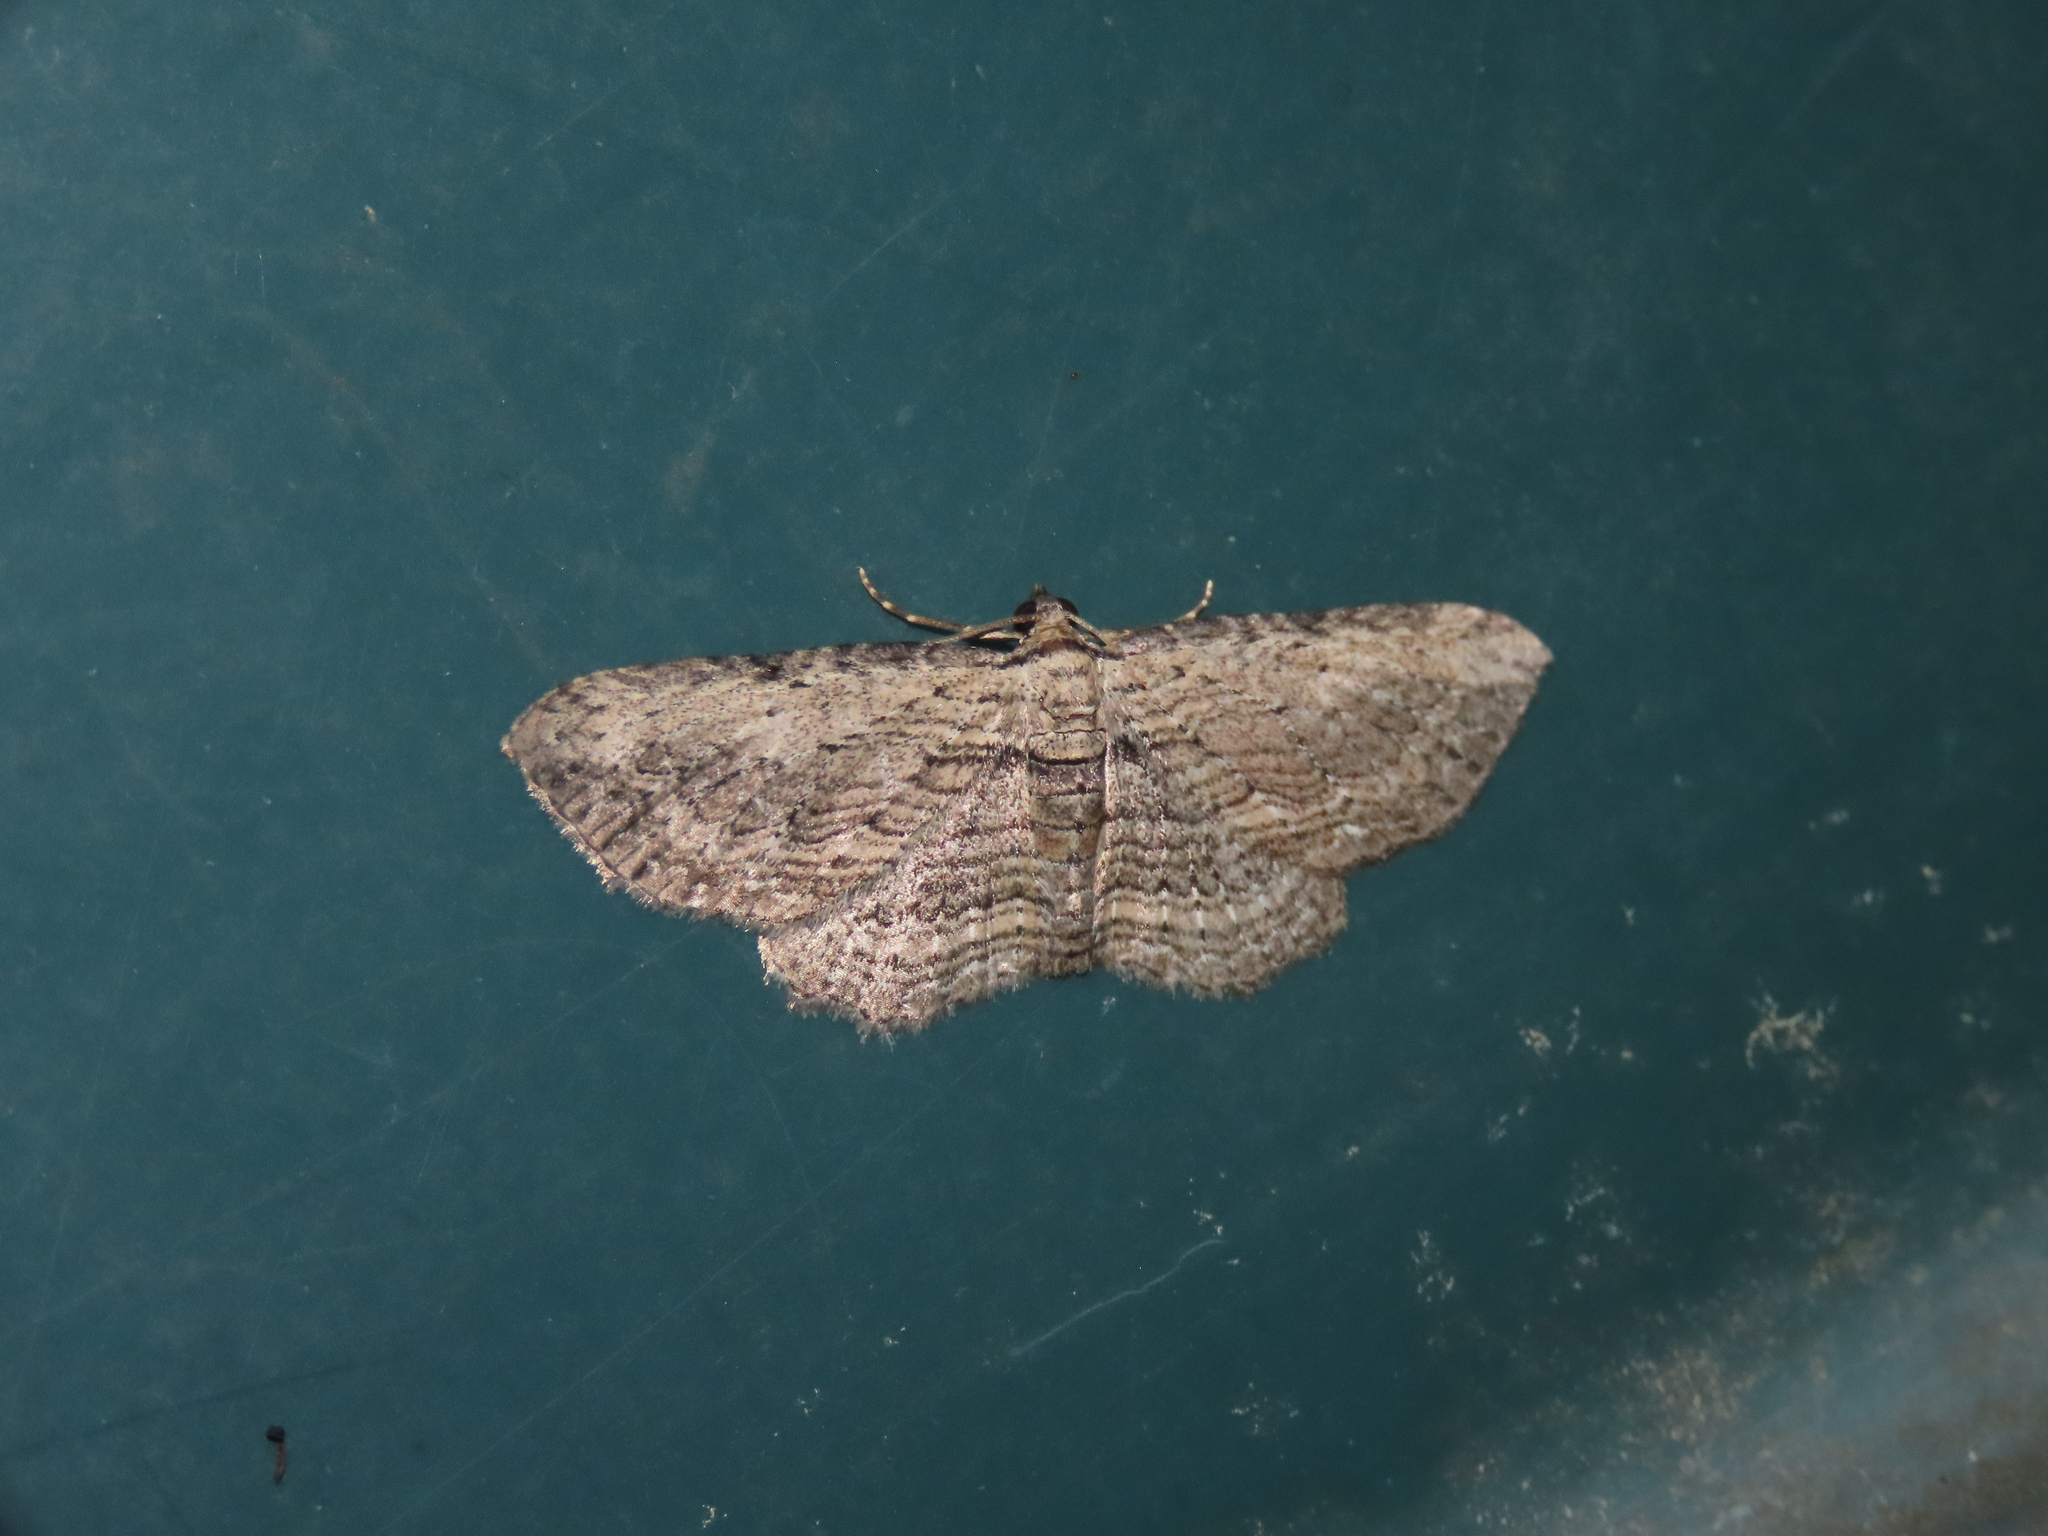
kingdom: Animalia
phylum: Arthropoda
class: Insecta
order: Lepidoptera
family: Geometridae
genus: Horisme
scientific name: Horisme intestinata
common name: Brown bark carpet
